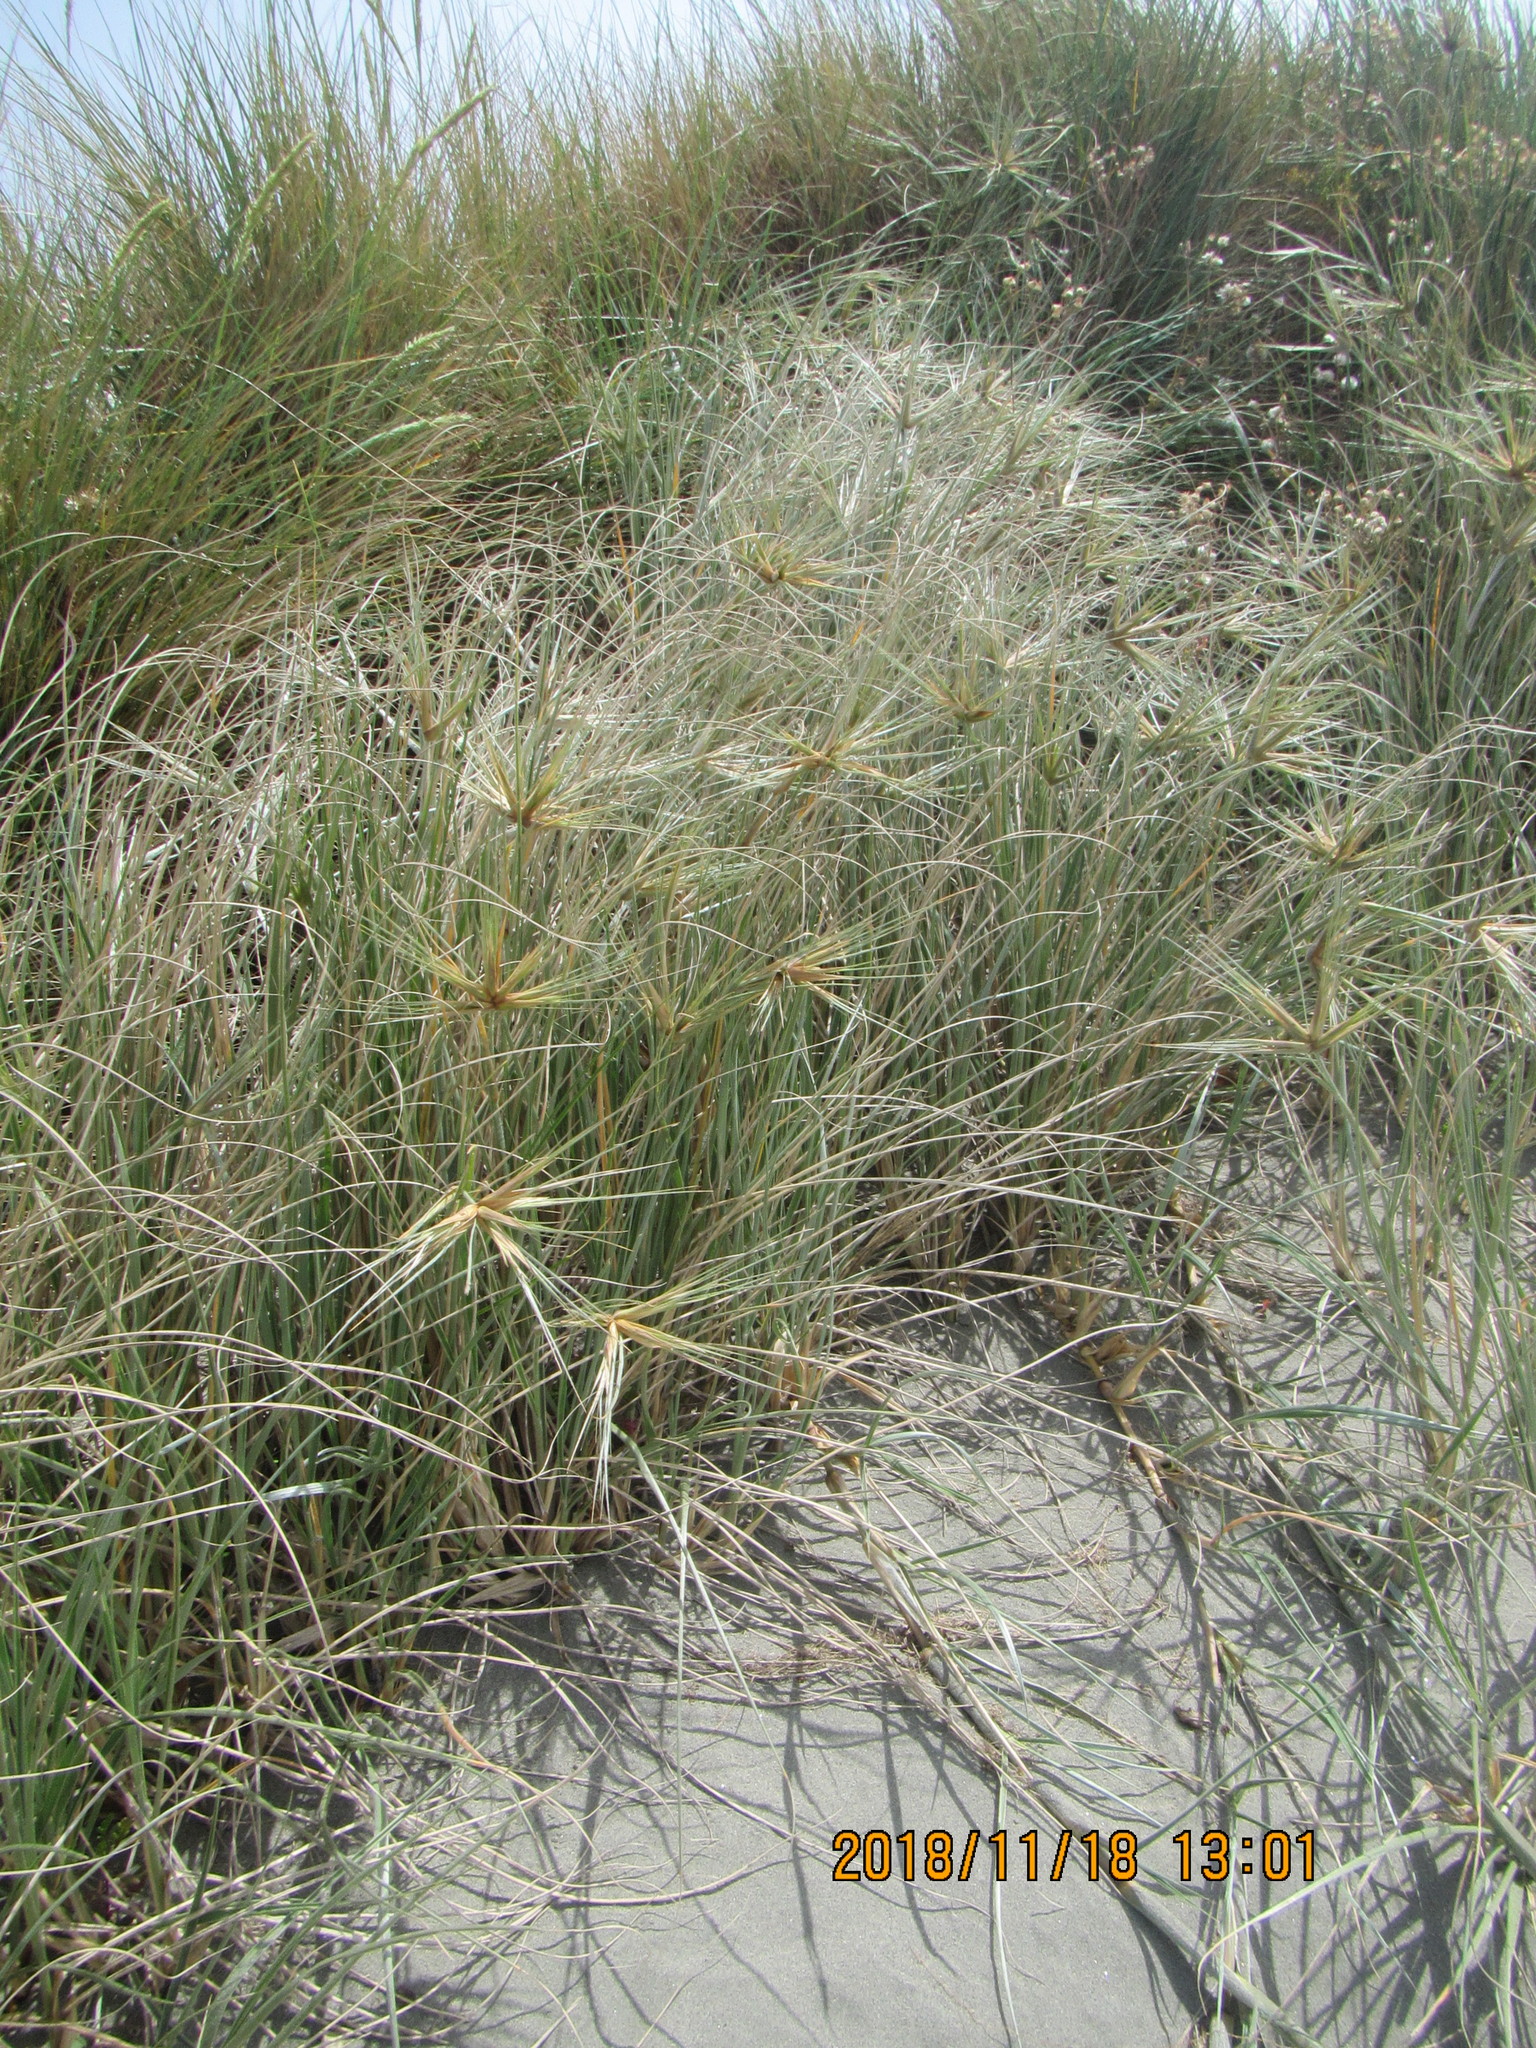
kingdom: Plantae
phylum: Tracheophyta
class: Liliopsida
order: Poales
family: Poaceae
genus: Spinifex
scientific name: Spinifex sericeus
